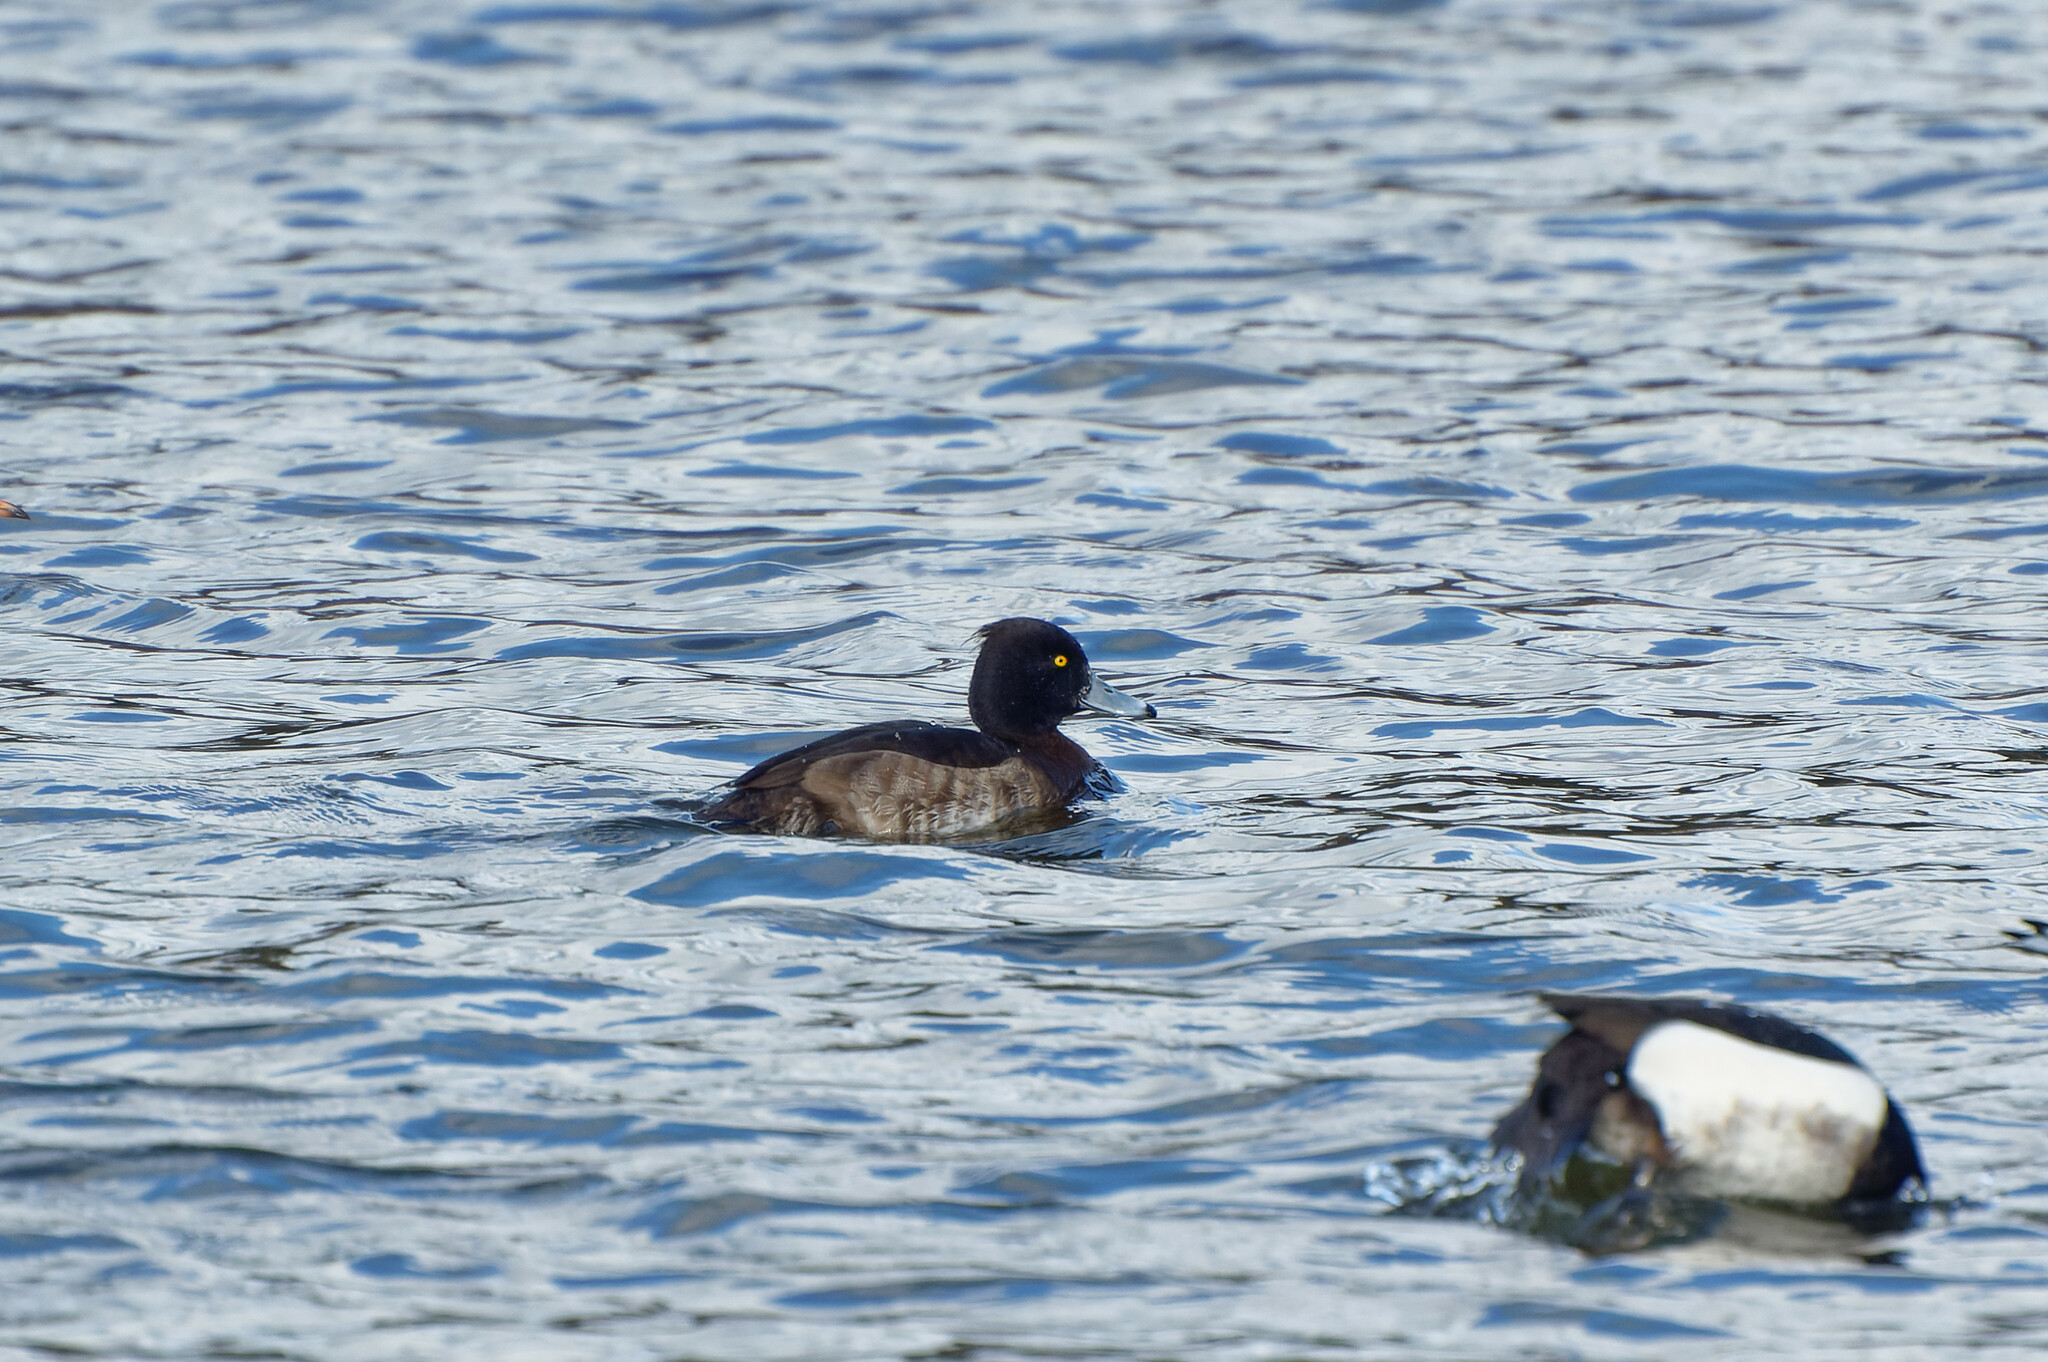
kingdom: Animalia
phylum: Chordata
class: Aves
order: Anseriformes
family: Anatidae
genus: Aythya
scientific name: Aythya fuligula
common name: Tufted duck
